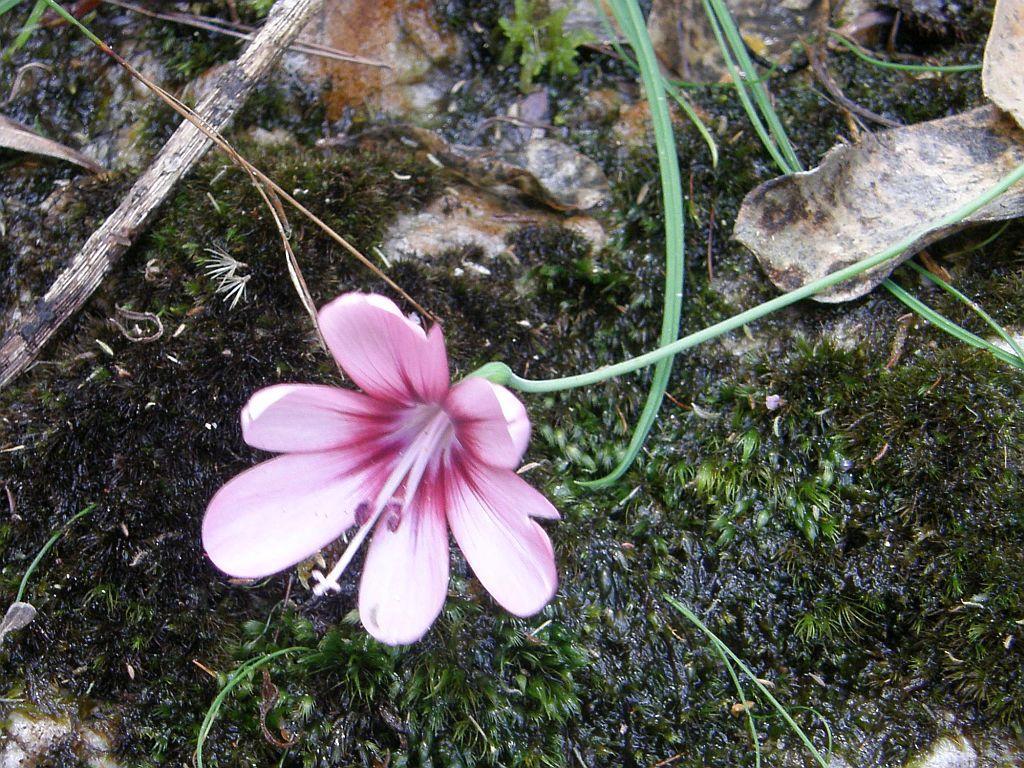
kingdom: Plantae
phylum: Tracheophyta
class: Liliopsida
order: Asparagales
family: Iridaceae
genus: Geissorhiza
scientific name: Geissorhiza callista
